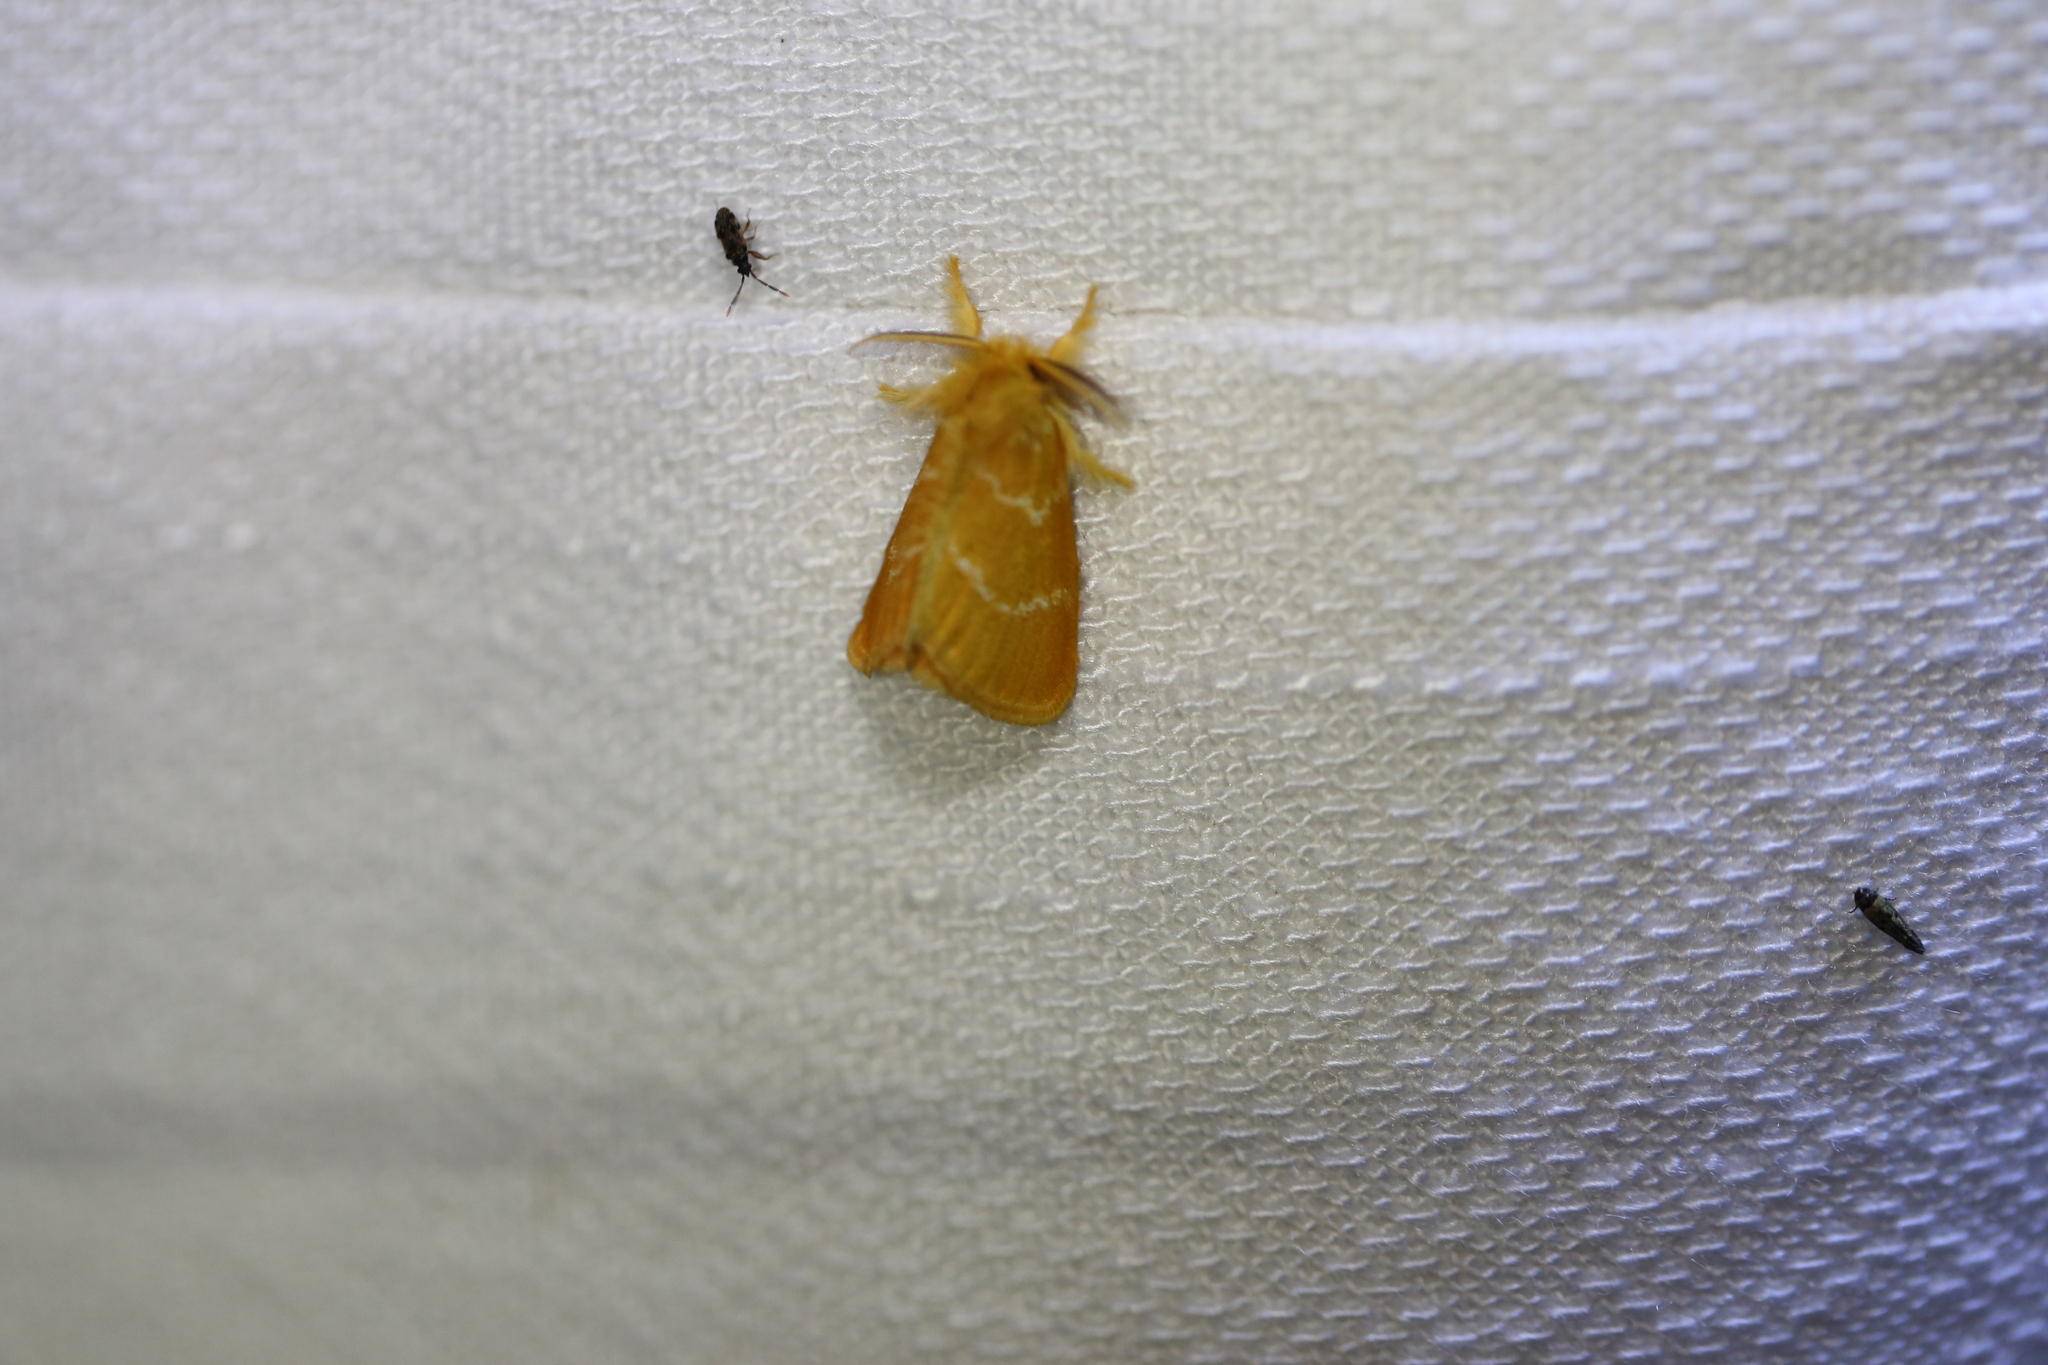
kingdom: Animalia
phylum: Arthropoda
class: Insecta
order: Lepidoptera
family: Erebidae
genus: Euproctis
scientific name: Euproctis lutea
